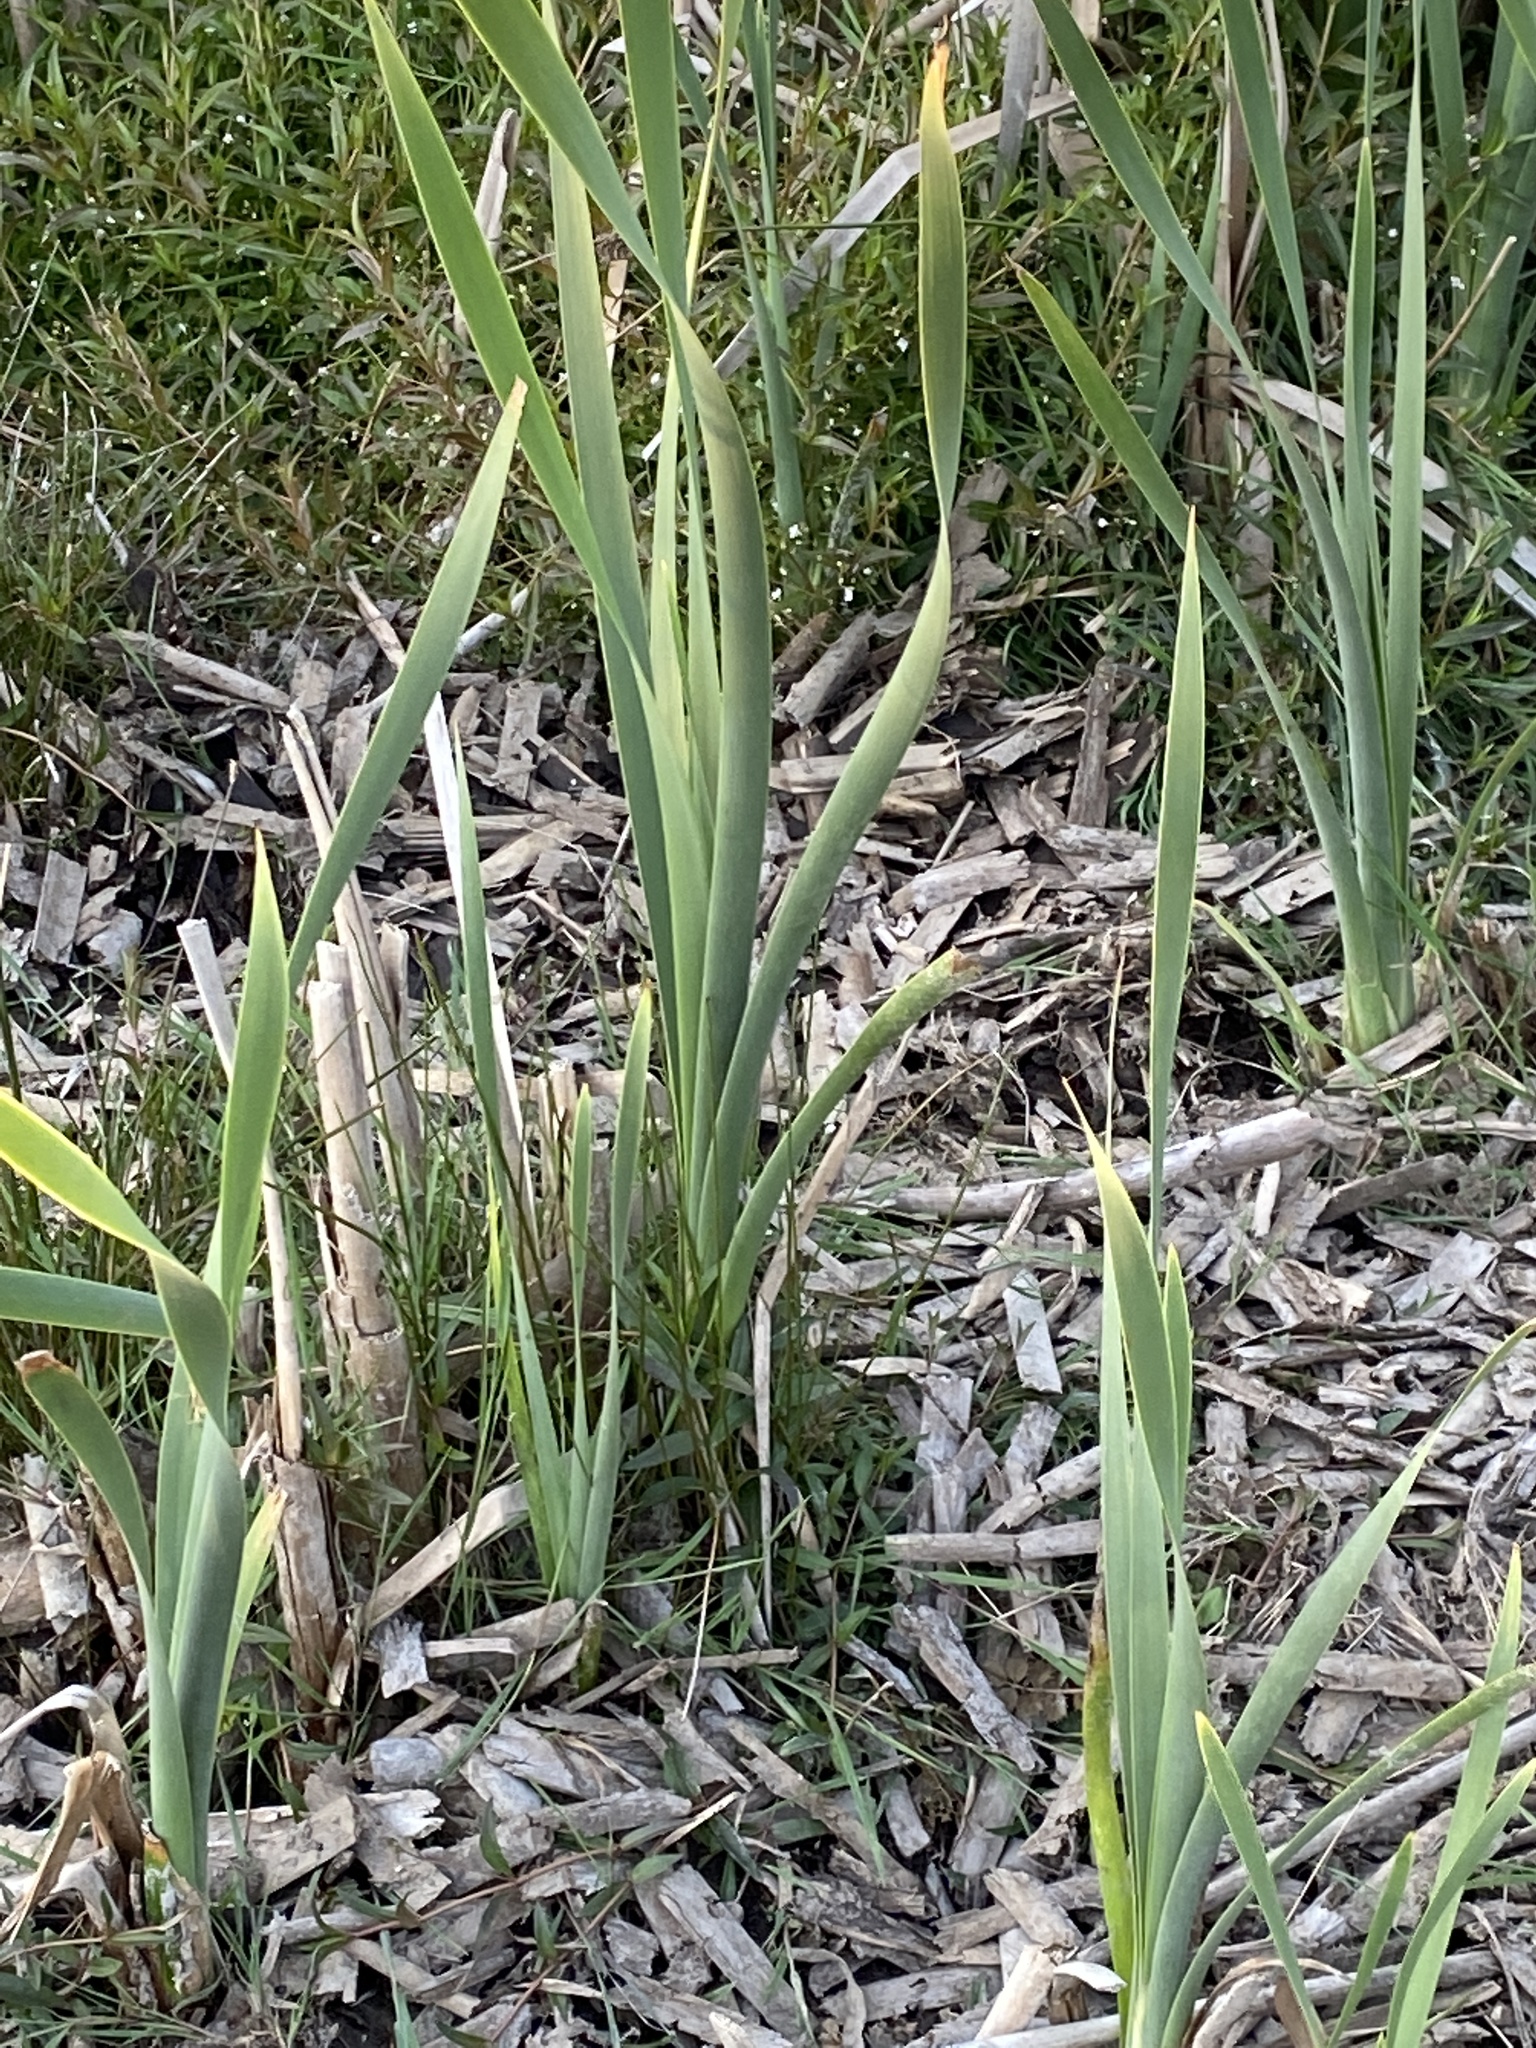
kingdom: Plantae
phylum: Tracheophyta
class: Liliopsida
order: Poales
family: Typhaceae
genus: Typha
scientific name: Typha orientalis
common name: Bullrush
